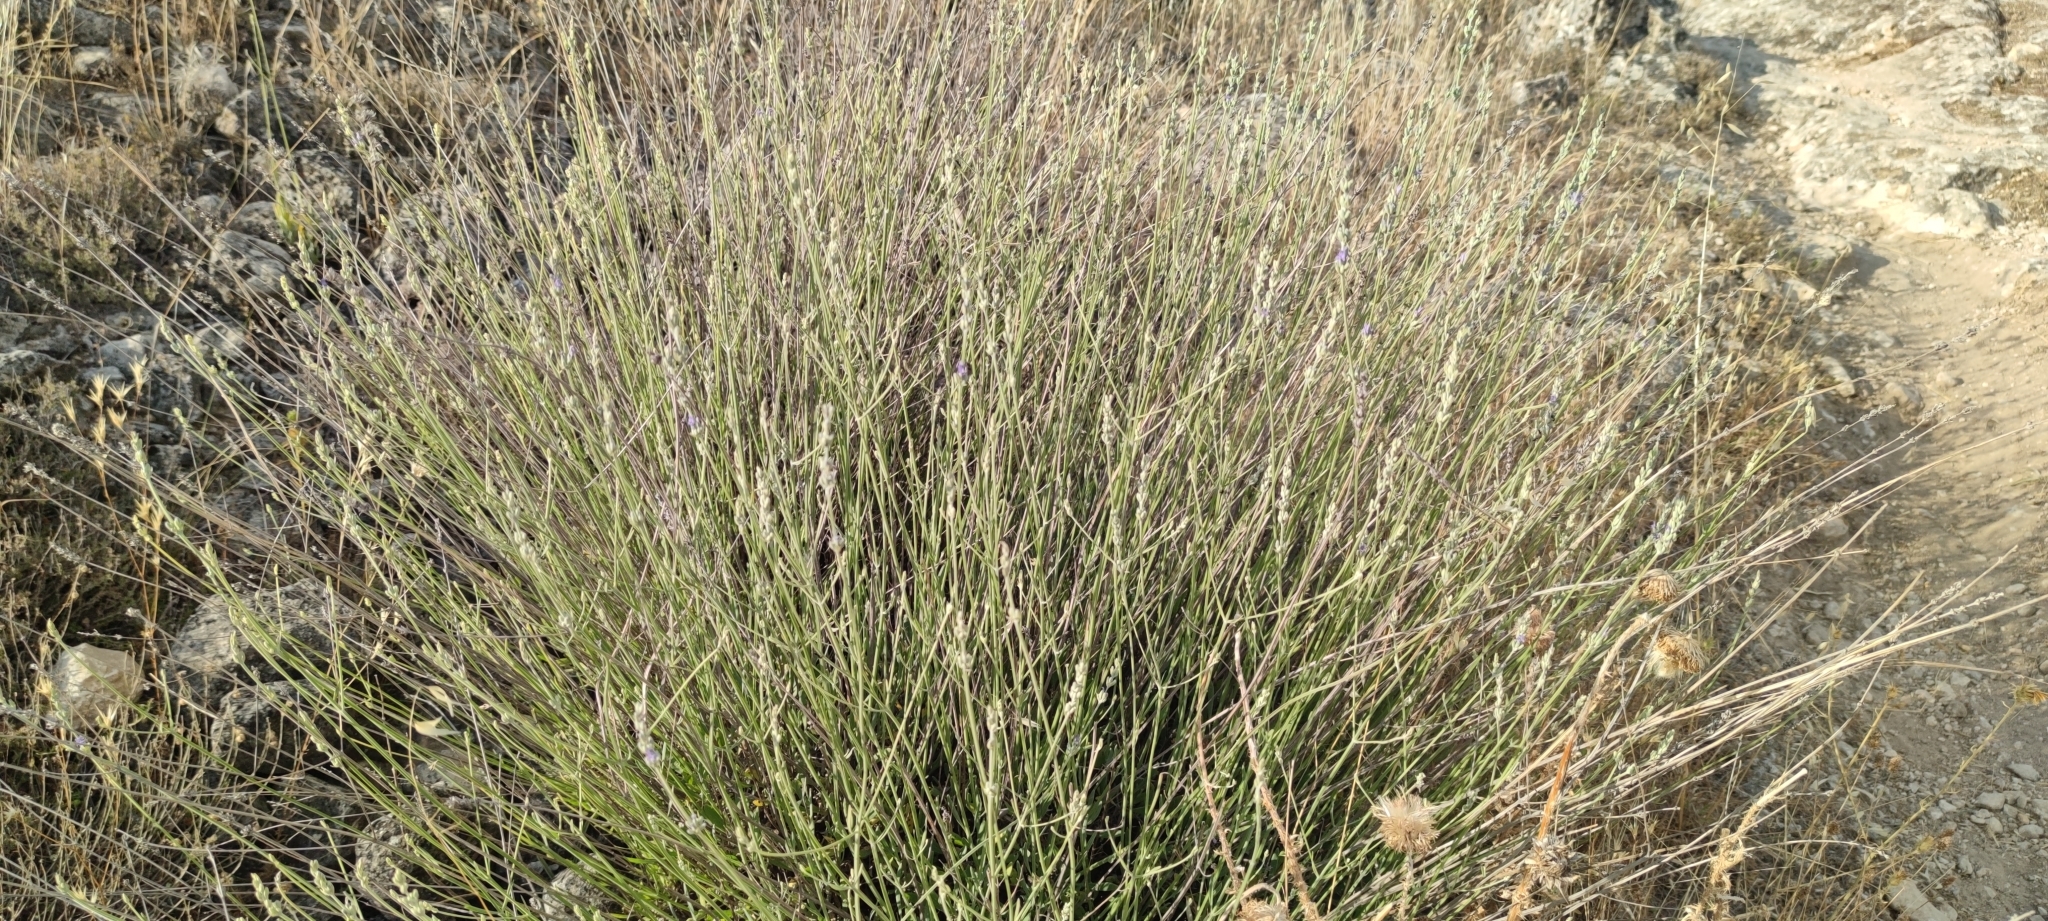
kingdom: Plantae
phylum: Tracheophyta
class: Magnoliopsida
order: Lamiales
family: Lamiaceae
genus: Lavandula
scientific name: Lavandula latifolia
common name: Spike lavendar
